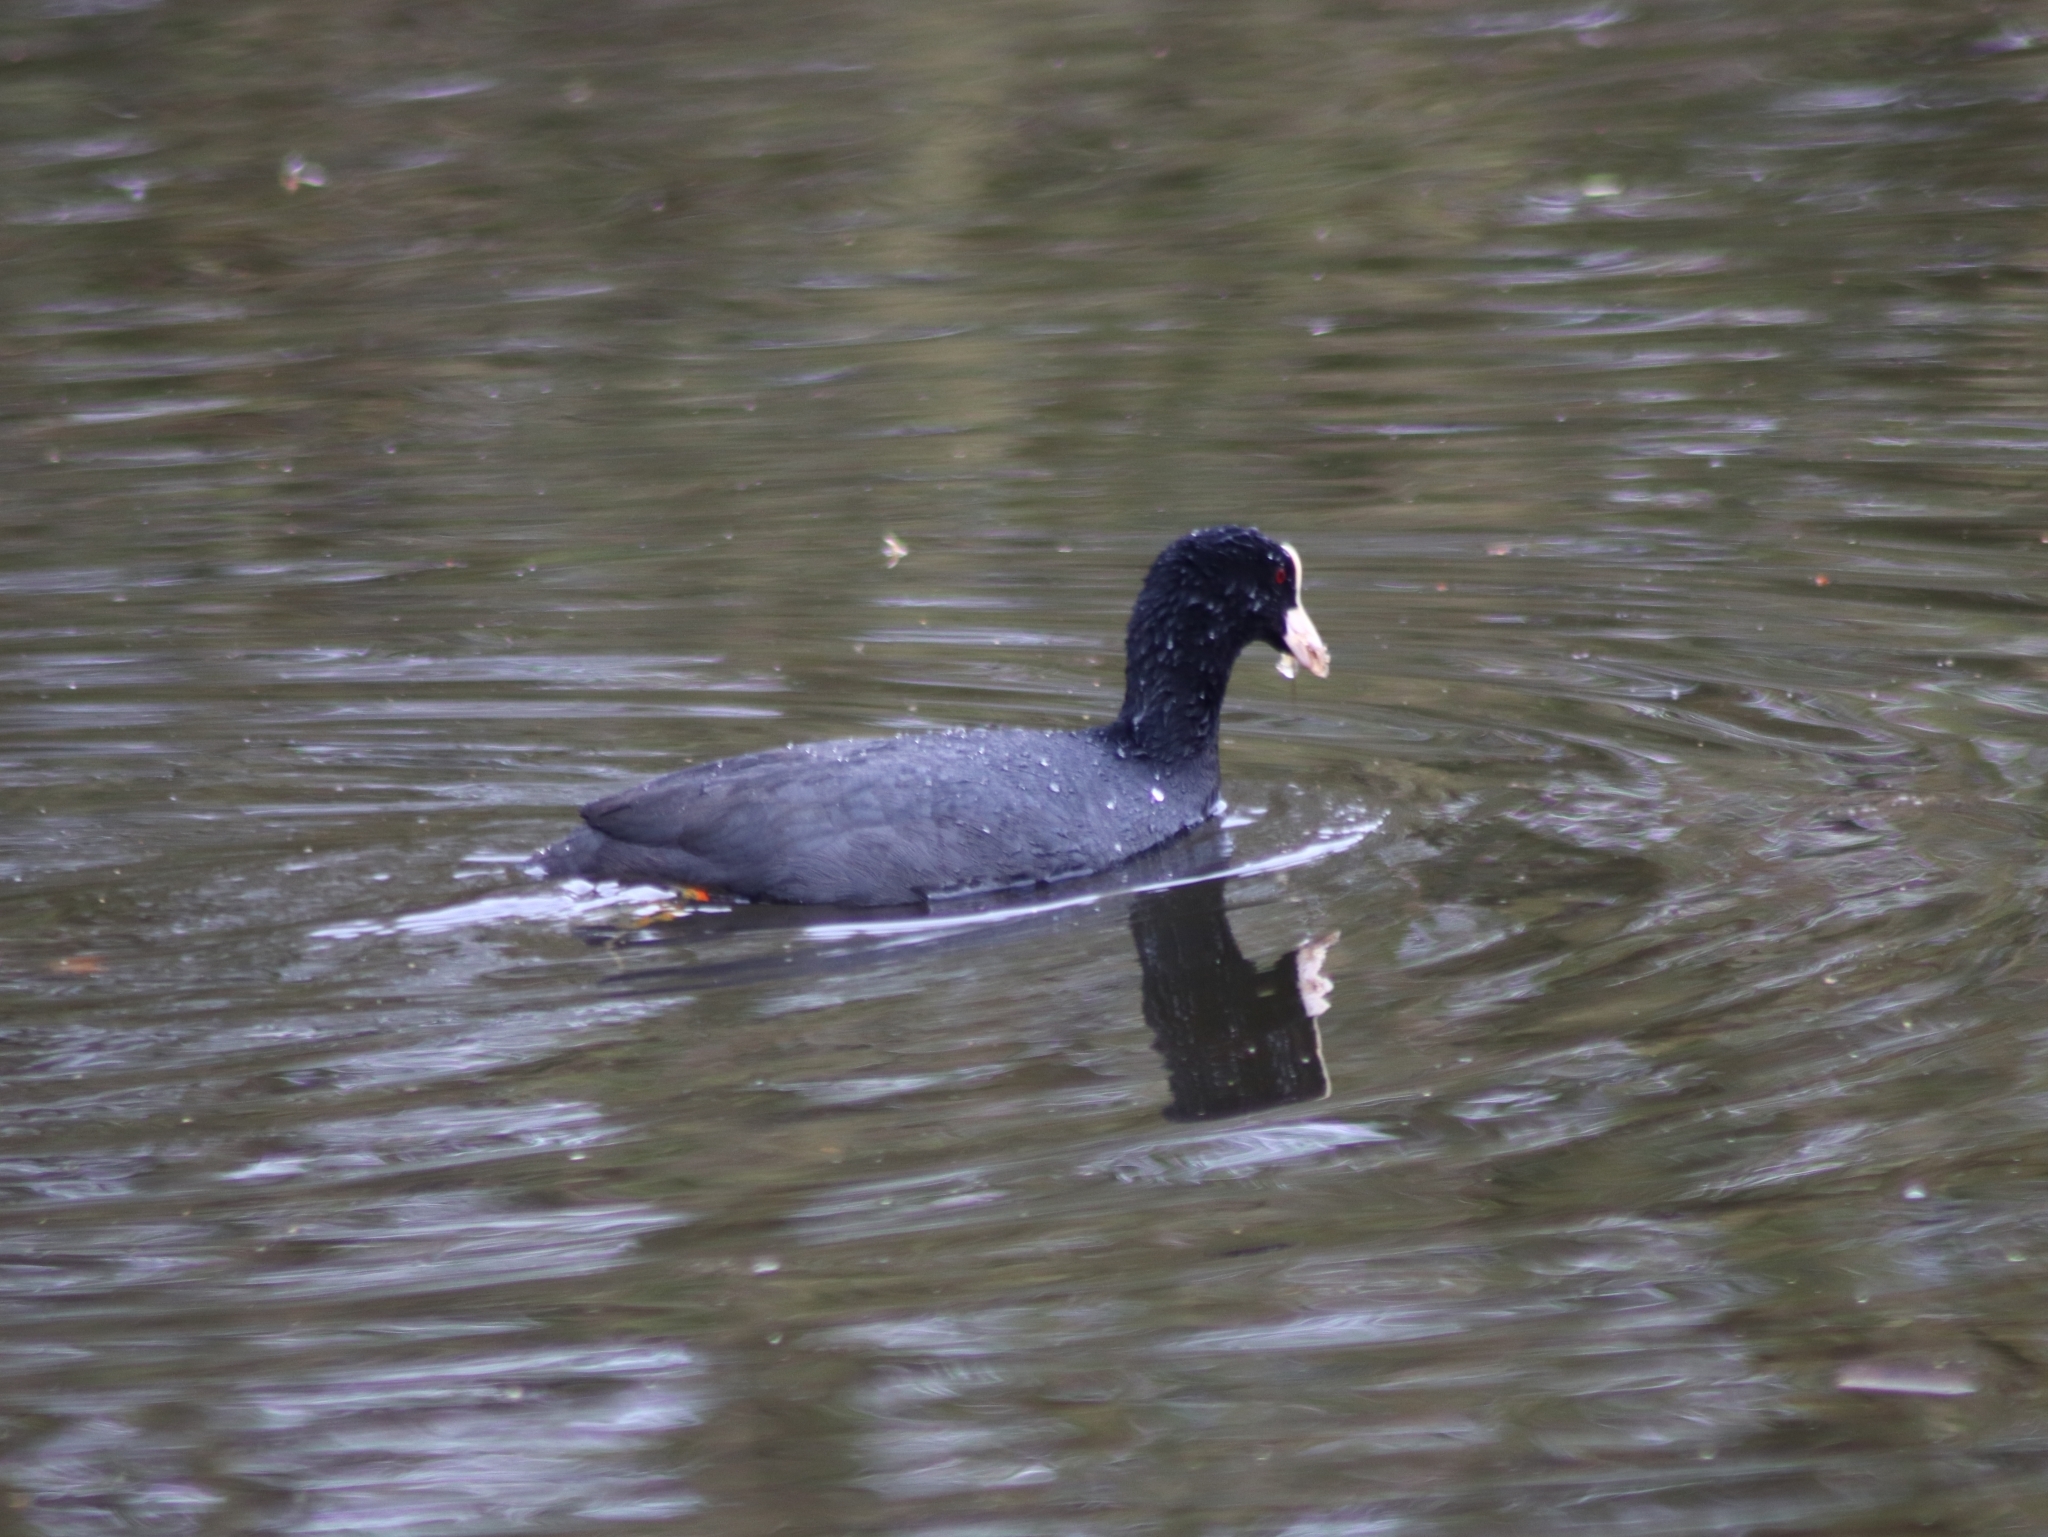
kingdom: Animalia
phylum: Chordata
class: Aves
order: Gruiformes
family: Rallidae
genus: Fulica
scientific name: Fulica atra
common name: Eurasian coot
